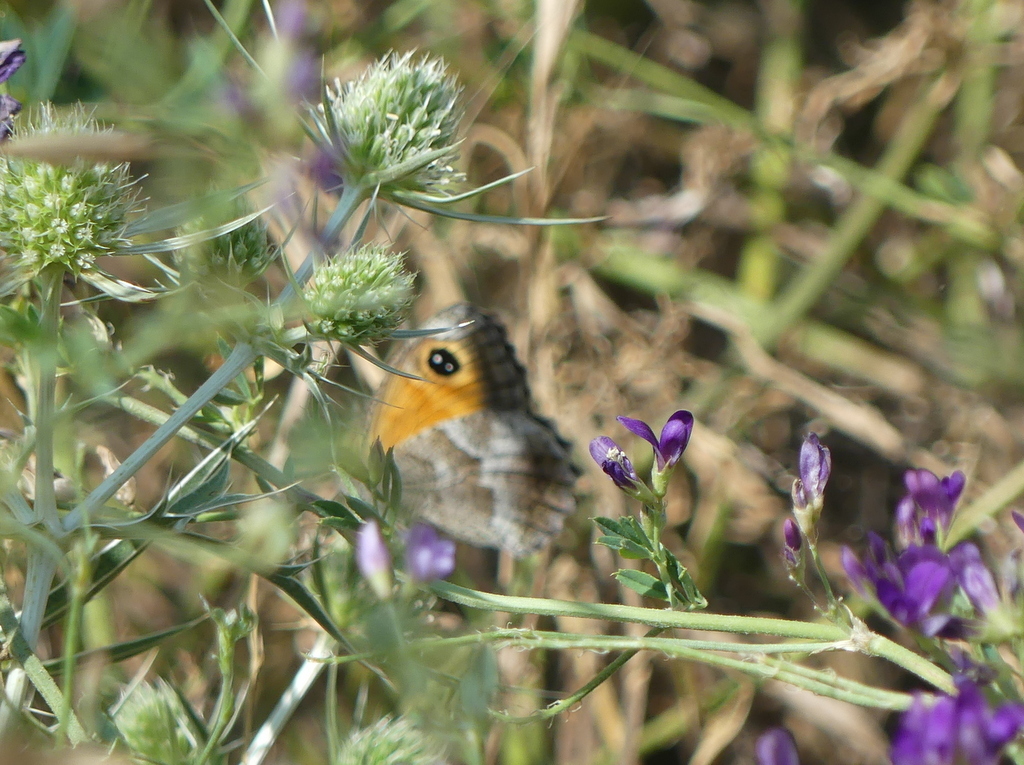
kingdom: Animalia
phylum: Arthropoda
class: Insecta
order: Lepidoptera
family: Nymphalidae
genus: Pyronia
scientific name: Pyronia cecilia
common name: Southern gatekeeper
